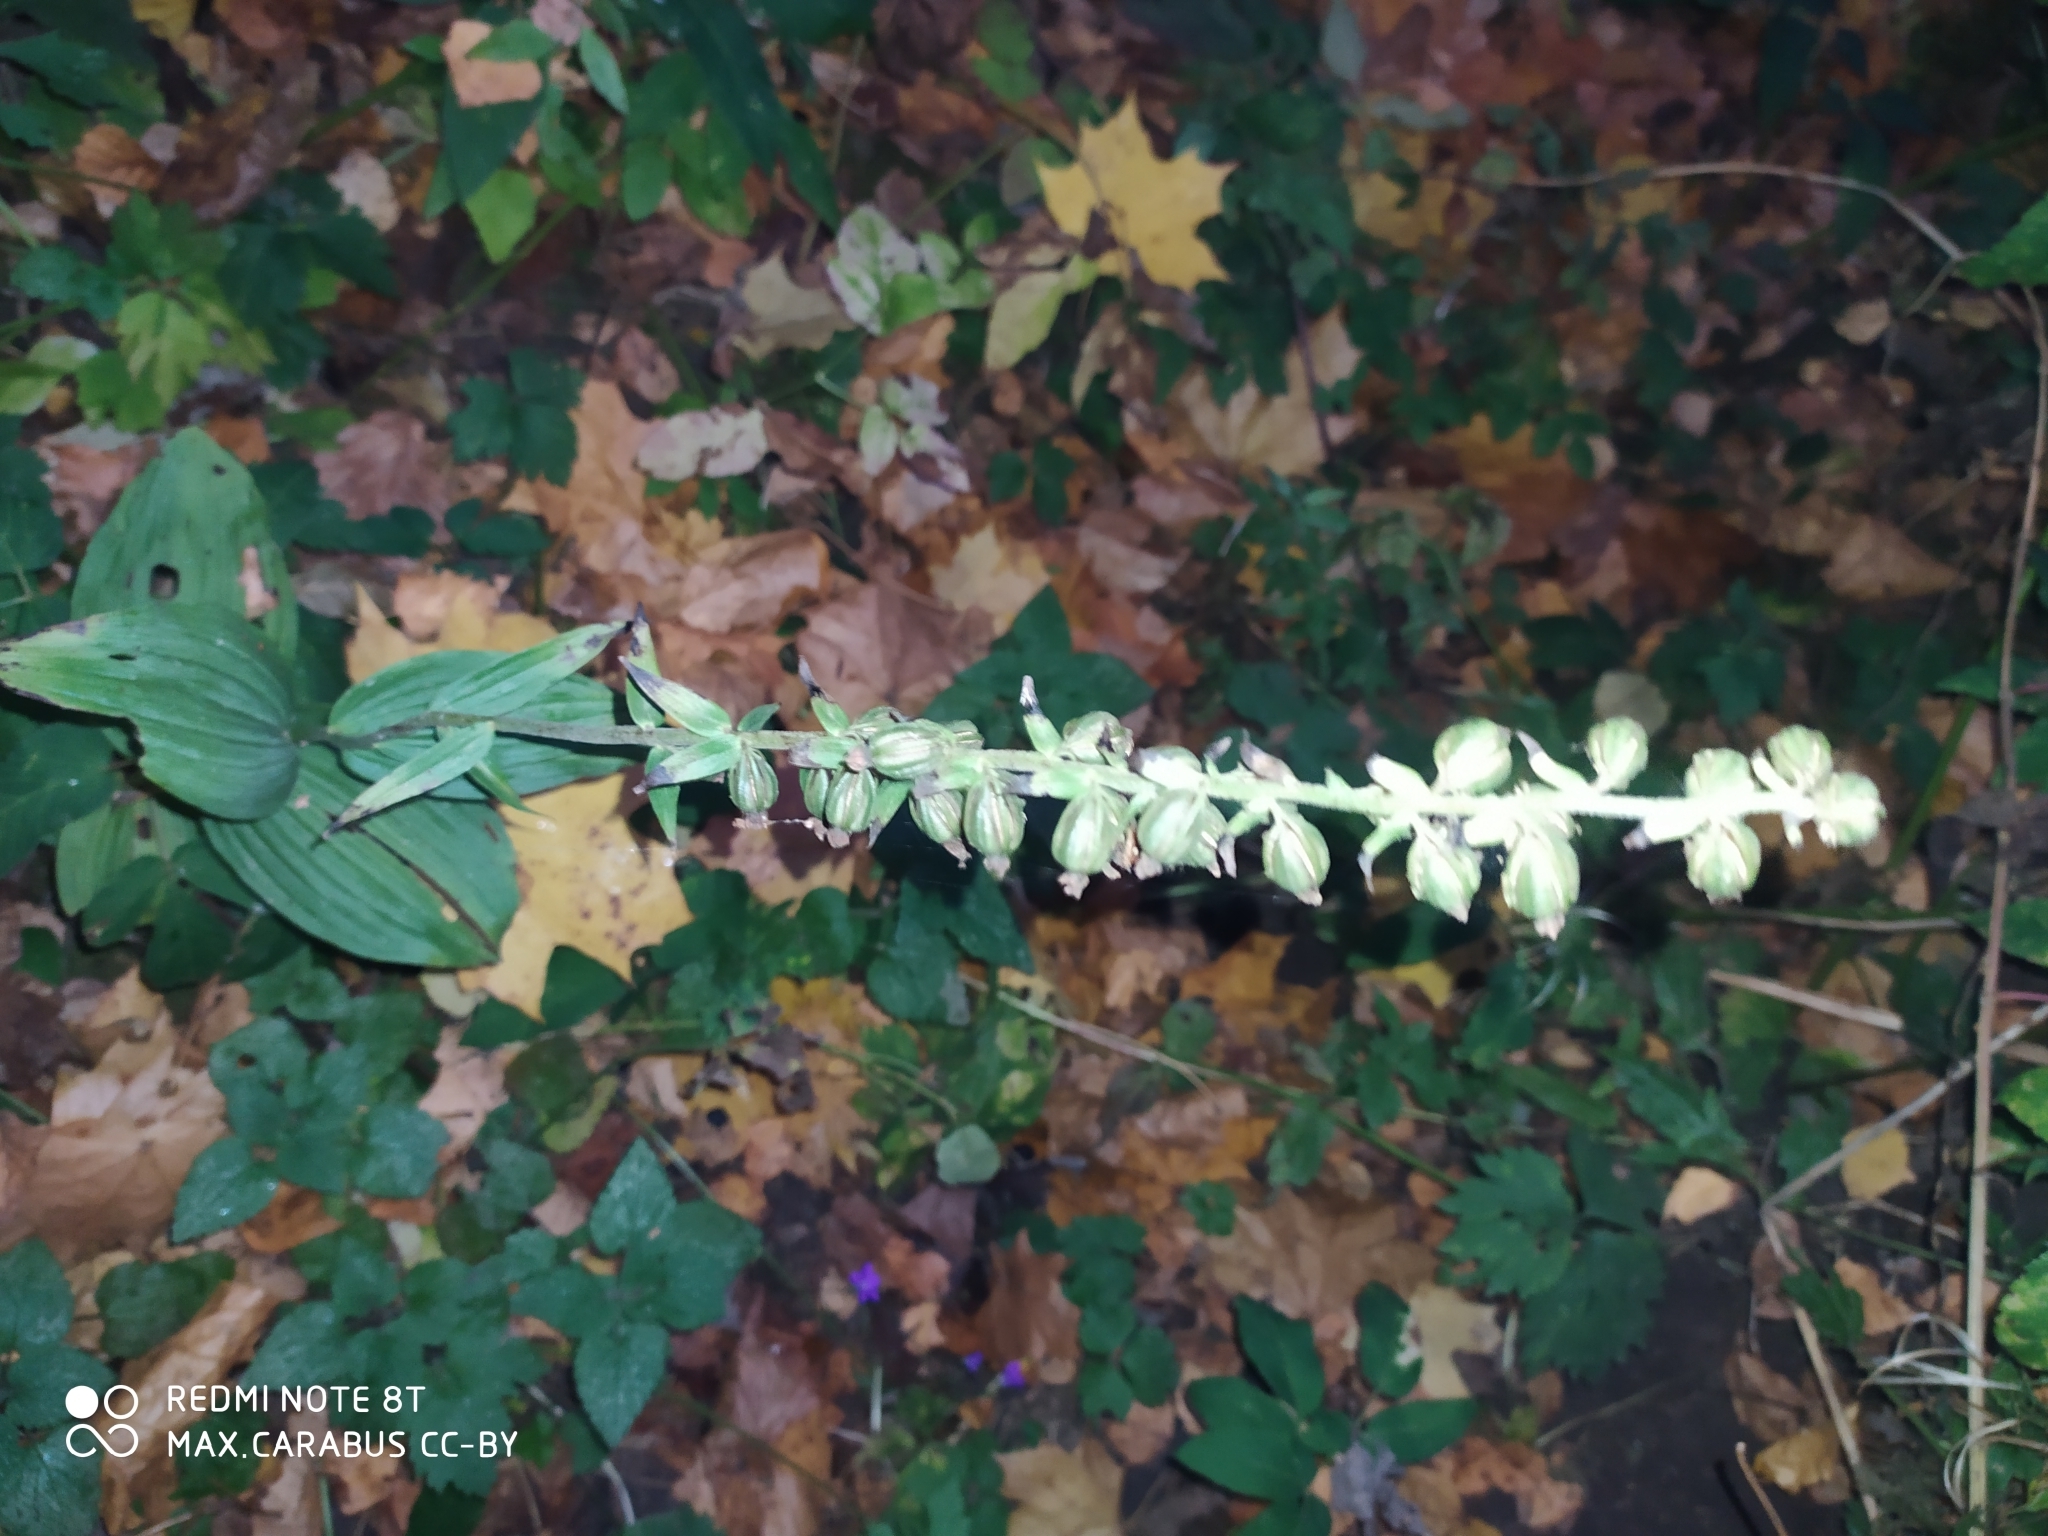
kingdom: Plantae
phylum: Tracheophyta
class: Liliopsida
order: Asparagales
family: Orchidaceae
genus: Epipactis
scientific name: Epipactis helleborine
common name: Broad-leaved helleborine
